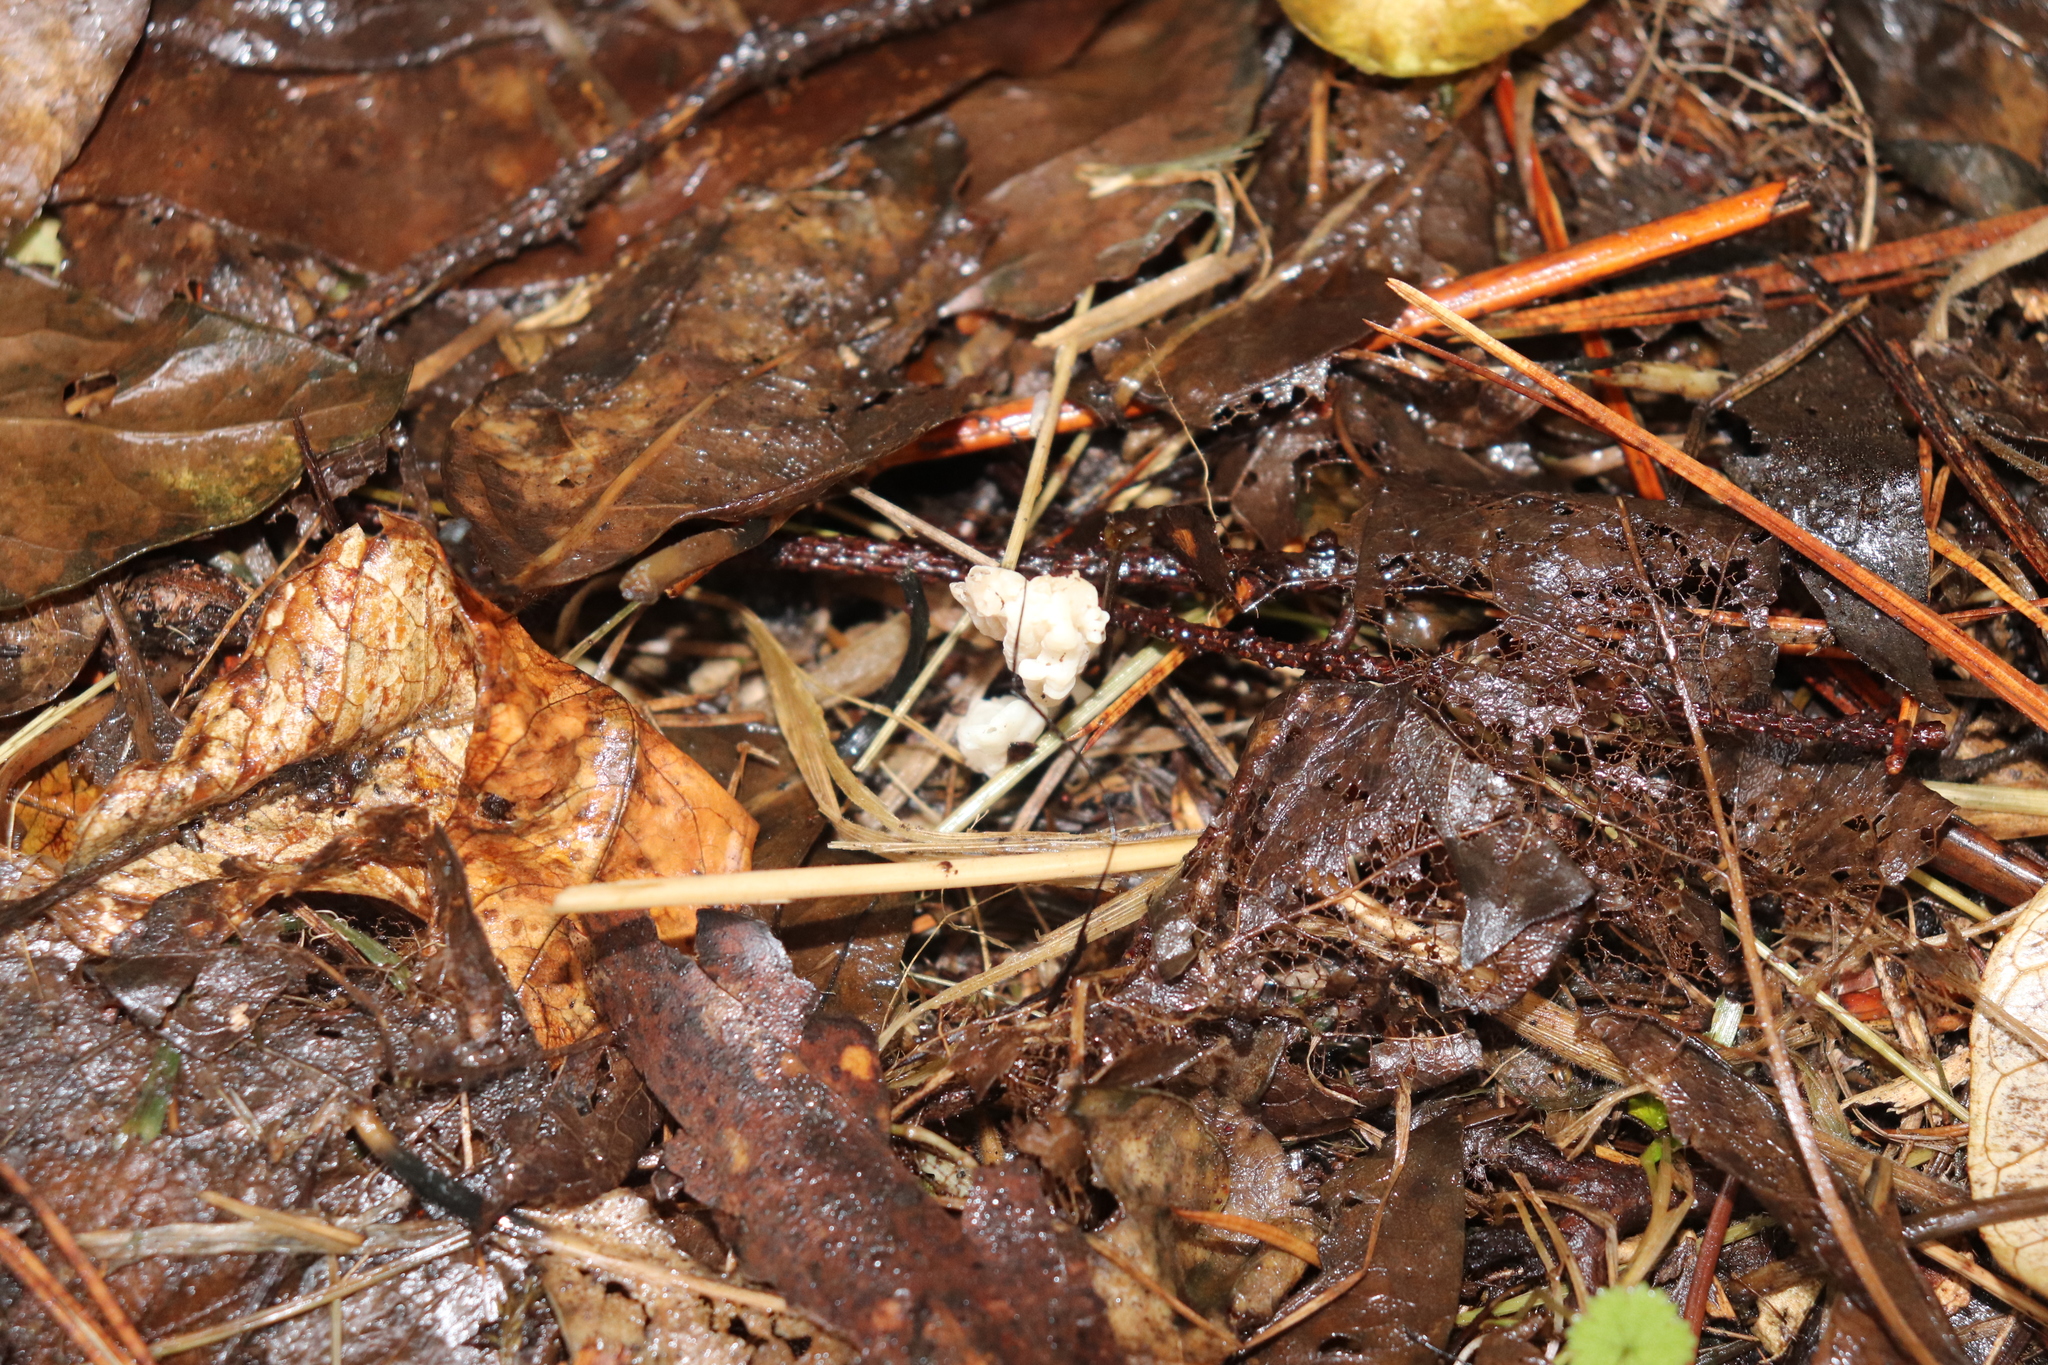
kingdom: Fungi
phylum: Basidiomycota
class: Agaricomycetes
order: Cantharellales
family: Hydnaceae
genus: Clavulina
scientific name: Clavulina rugosa
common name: Wrinkled club
